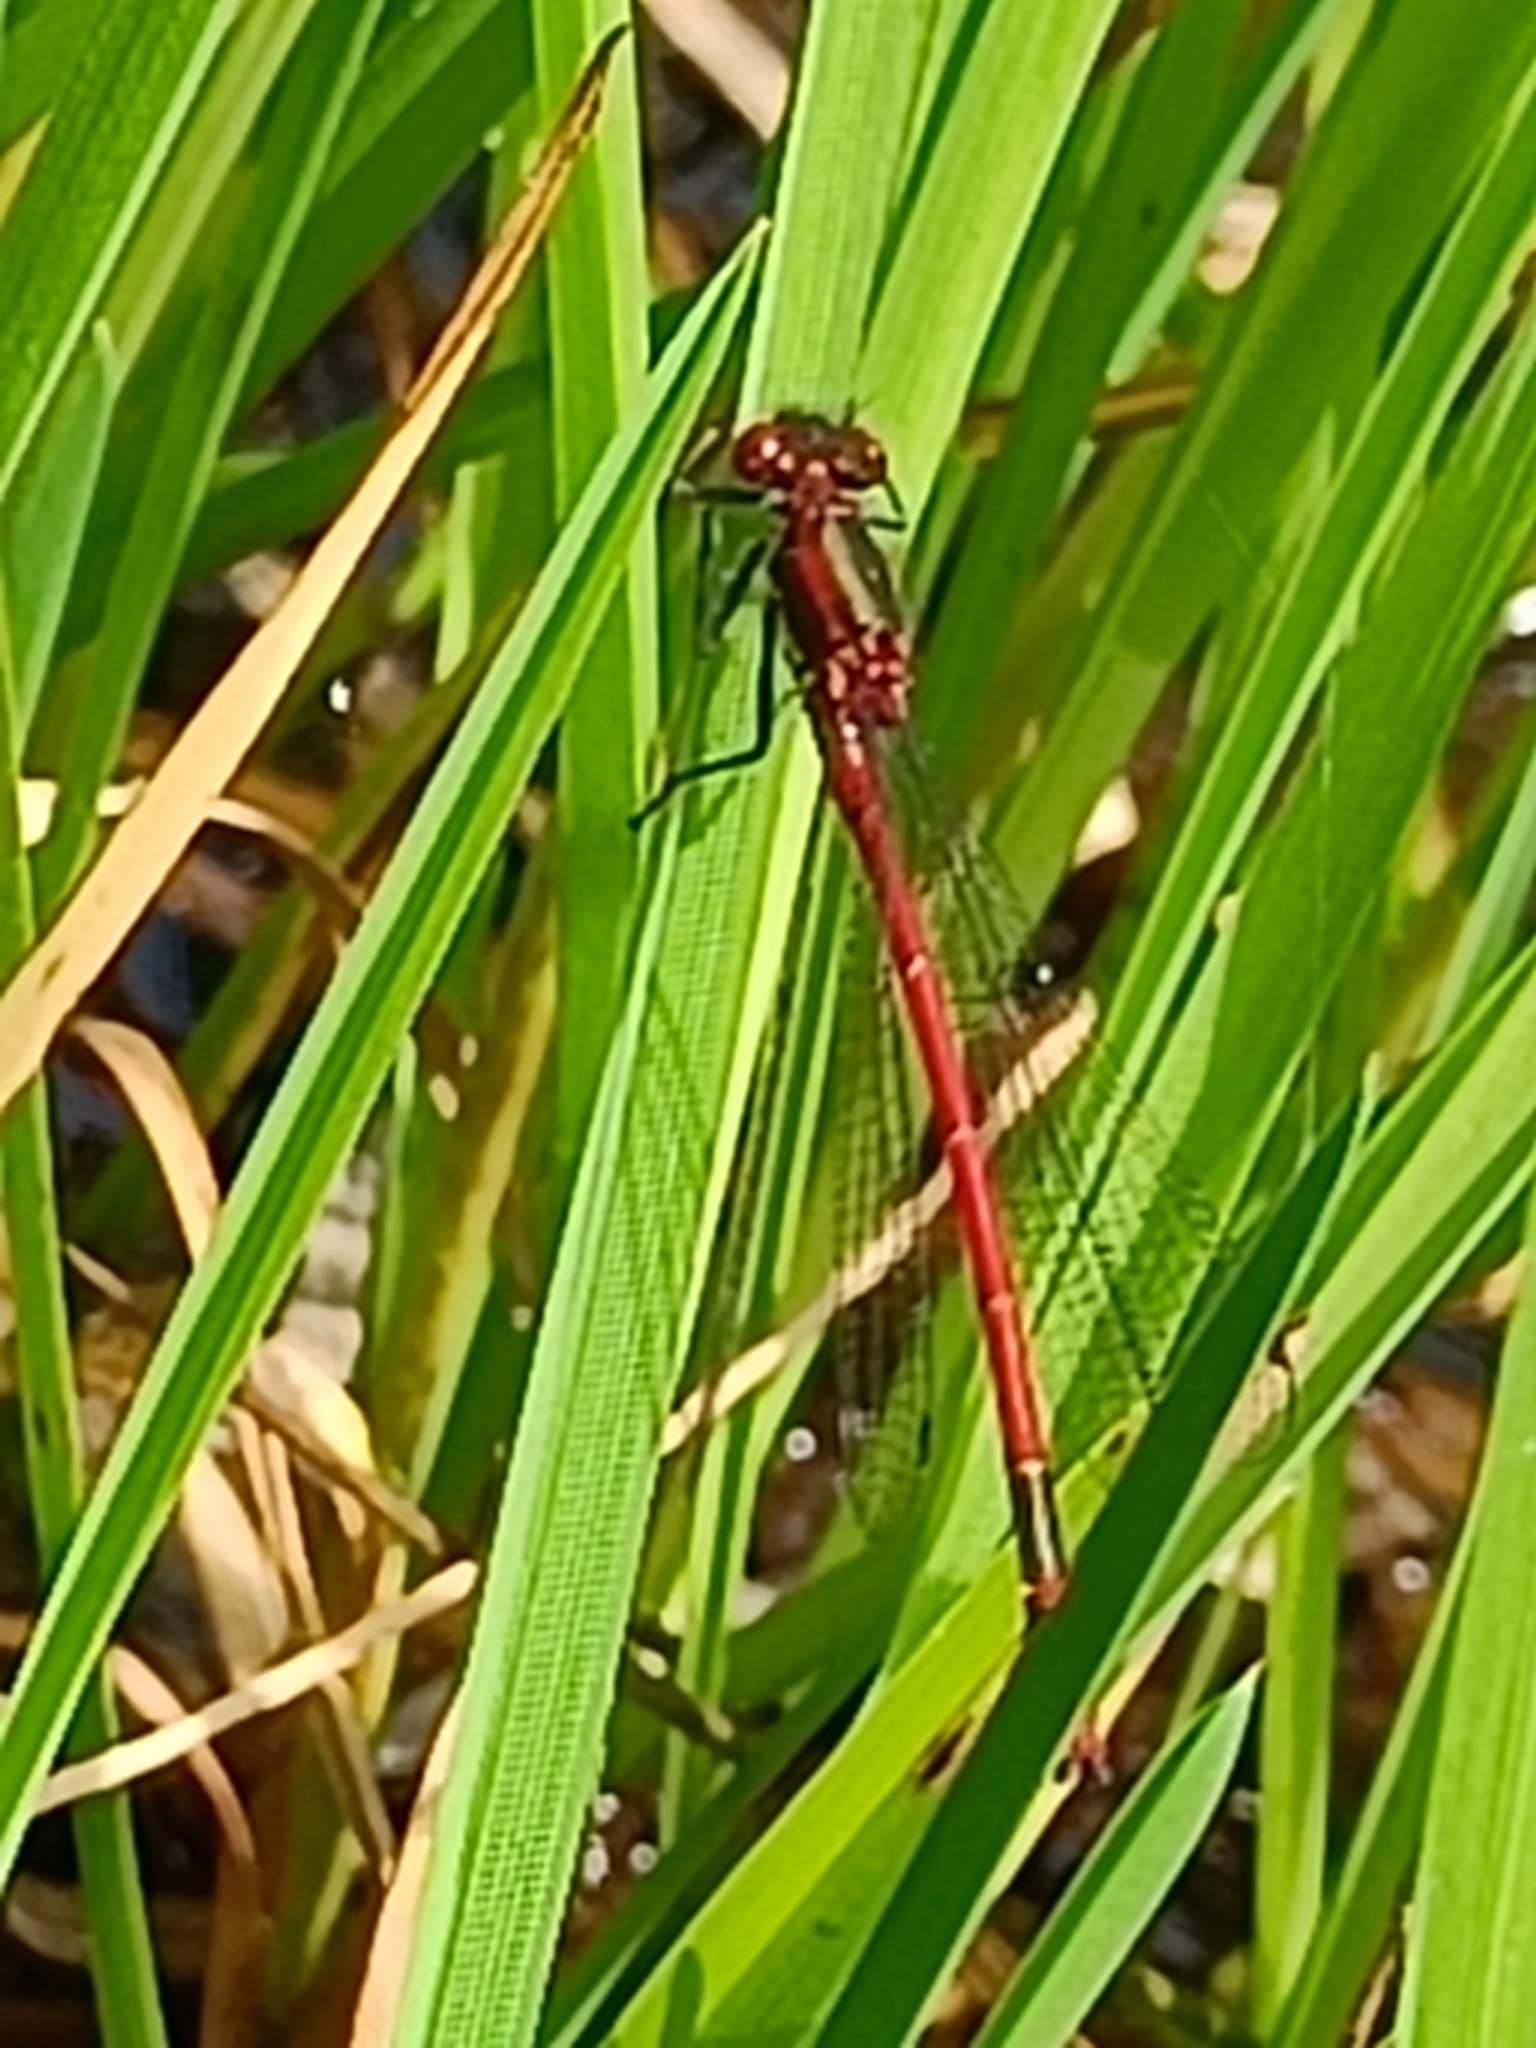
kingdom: Animalia
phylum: Arthropoda
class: Insecta
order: Odonata
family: Coenagrionidae
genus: Pyrrhosoma
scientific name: Pyrrhosoma nymphula
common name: Large red damsel
